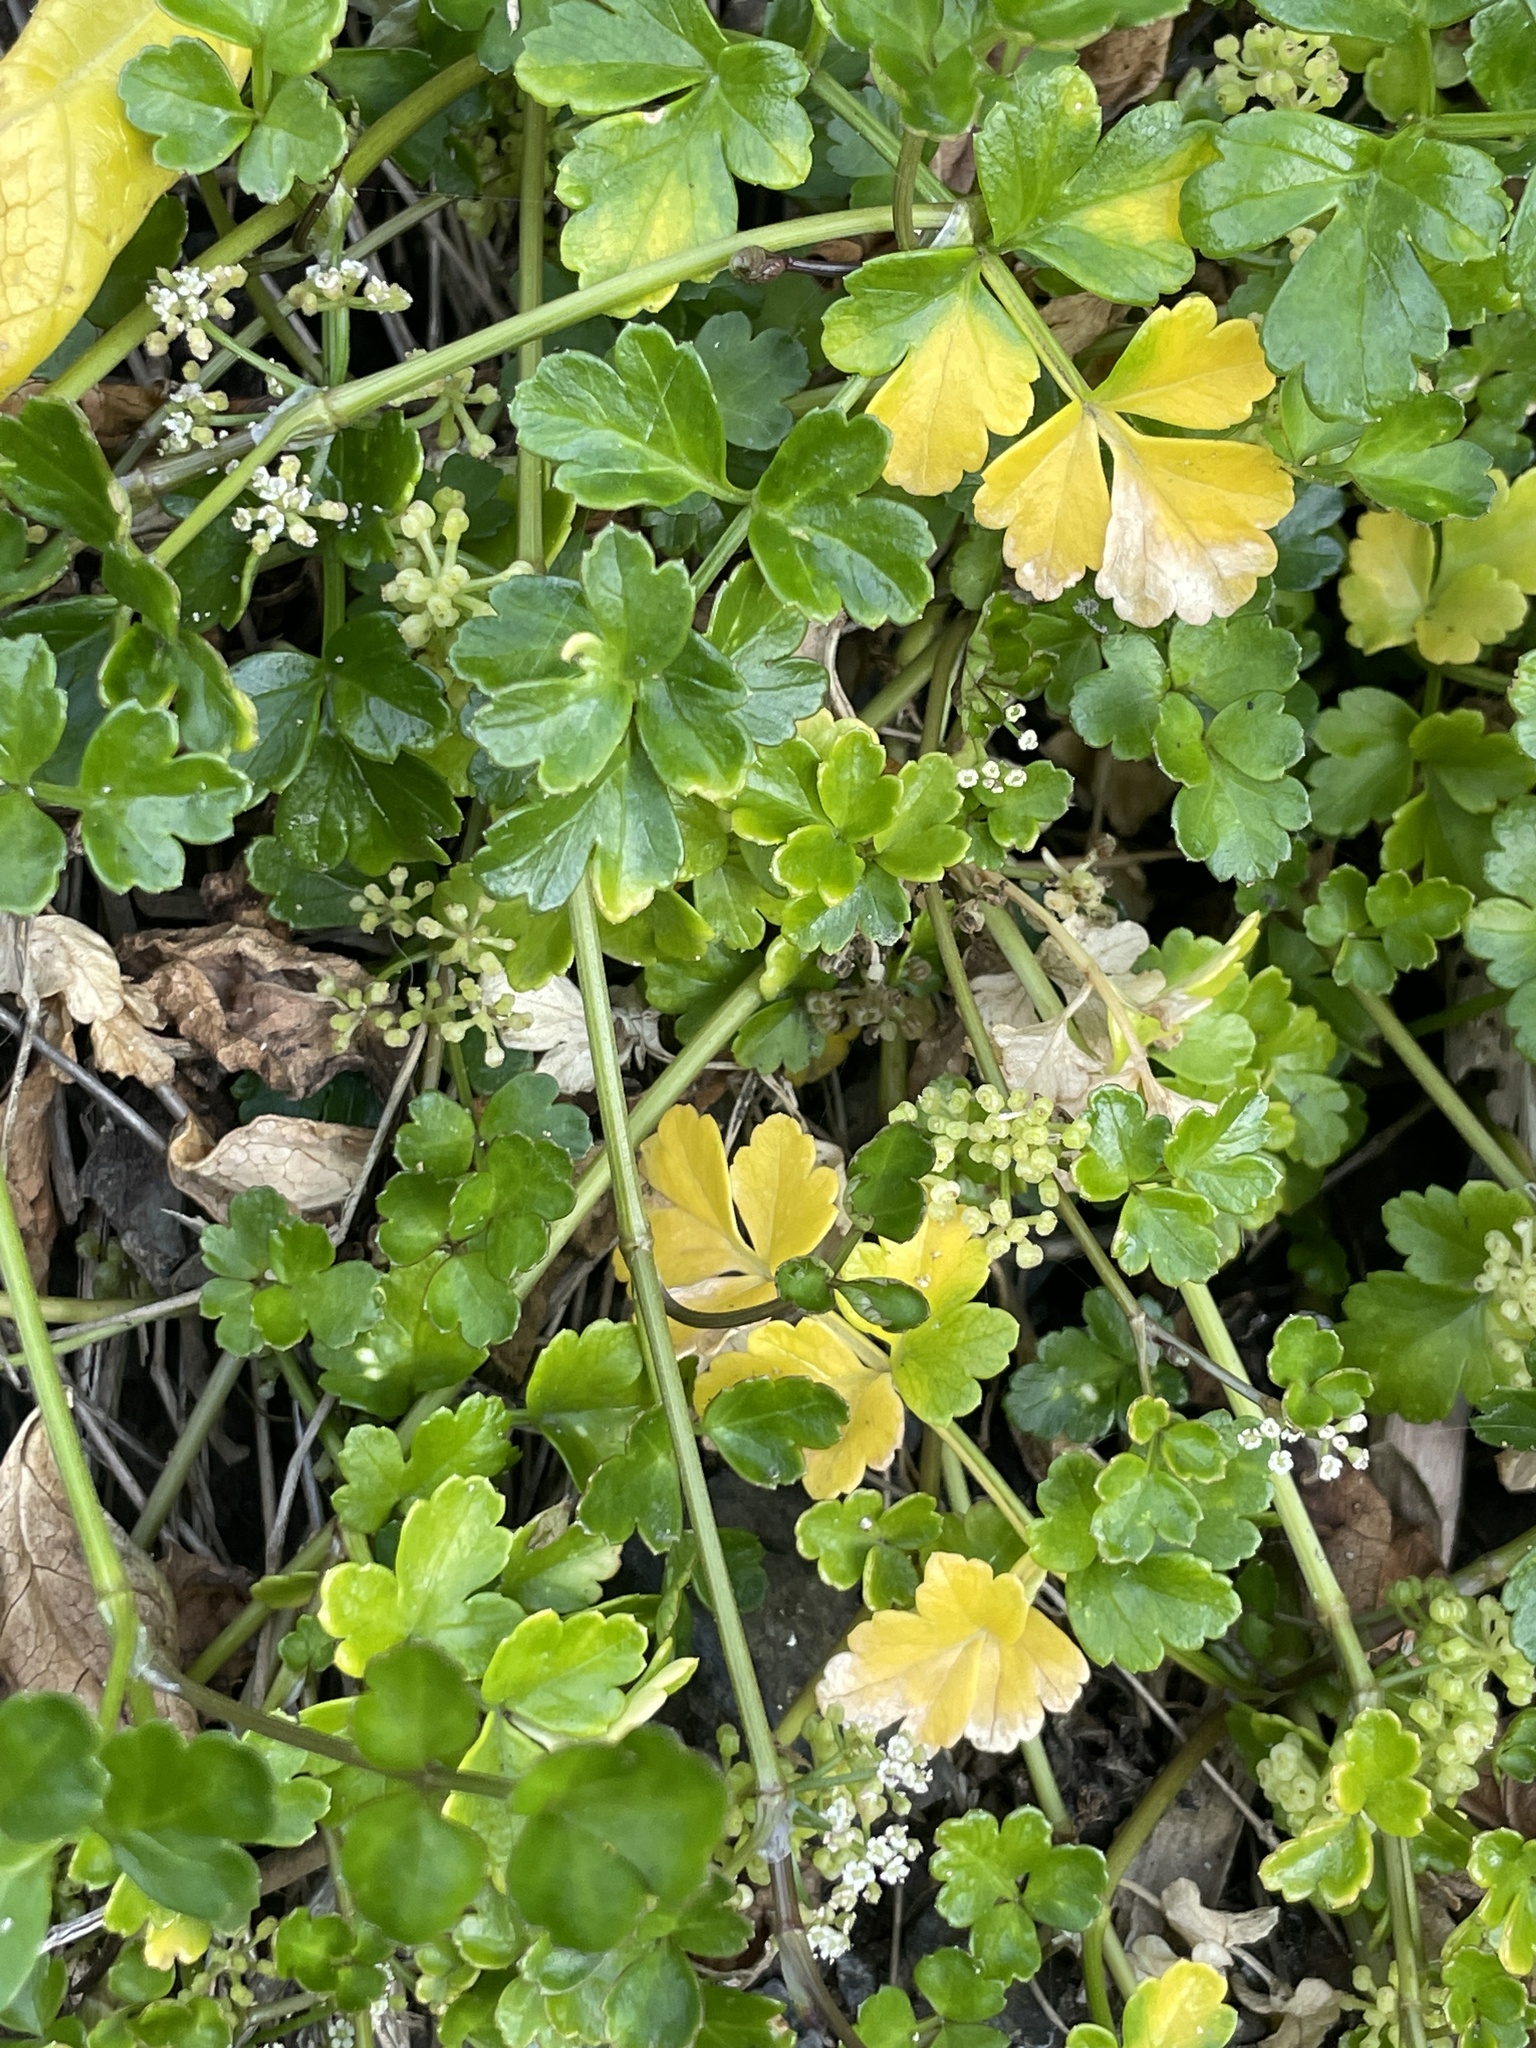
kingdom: Plantae
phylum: Tracheophyta
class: Magnoliopsida
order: Apiales
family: Apiaceae
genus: Apium
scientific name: Apium prostratum
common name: Prostrate marshwort
